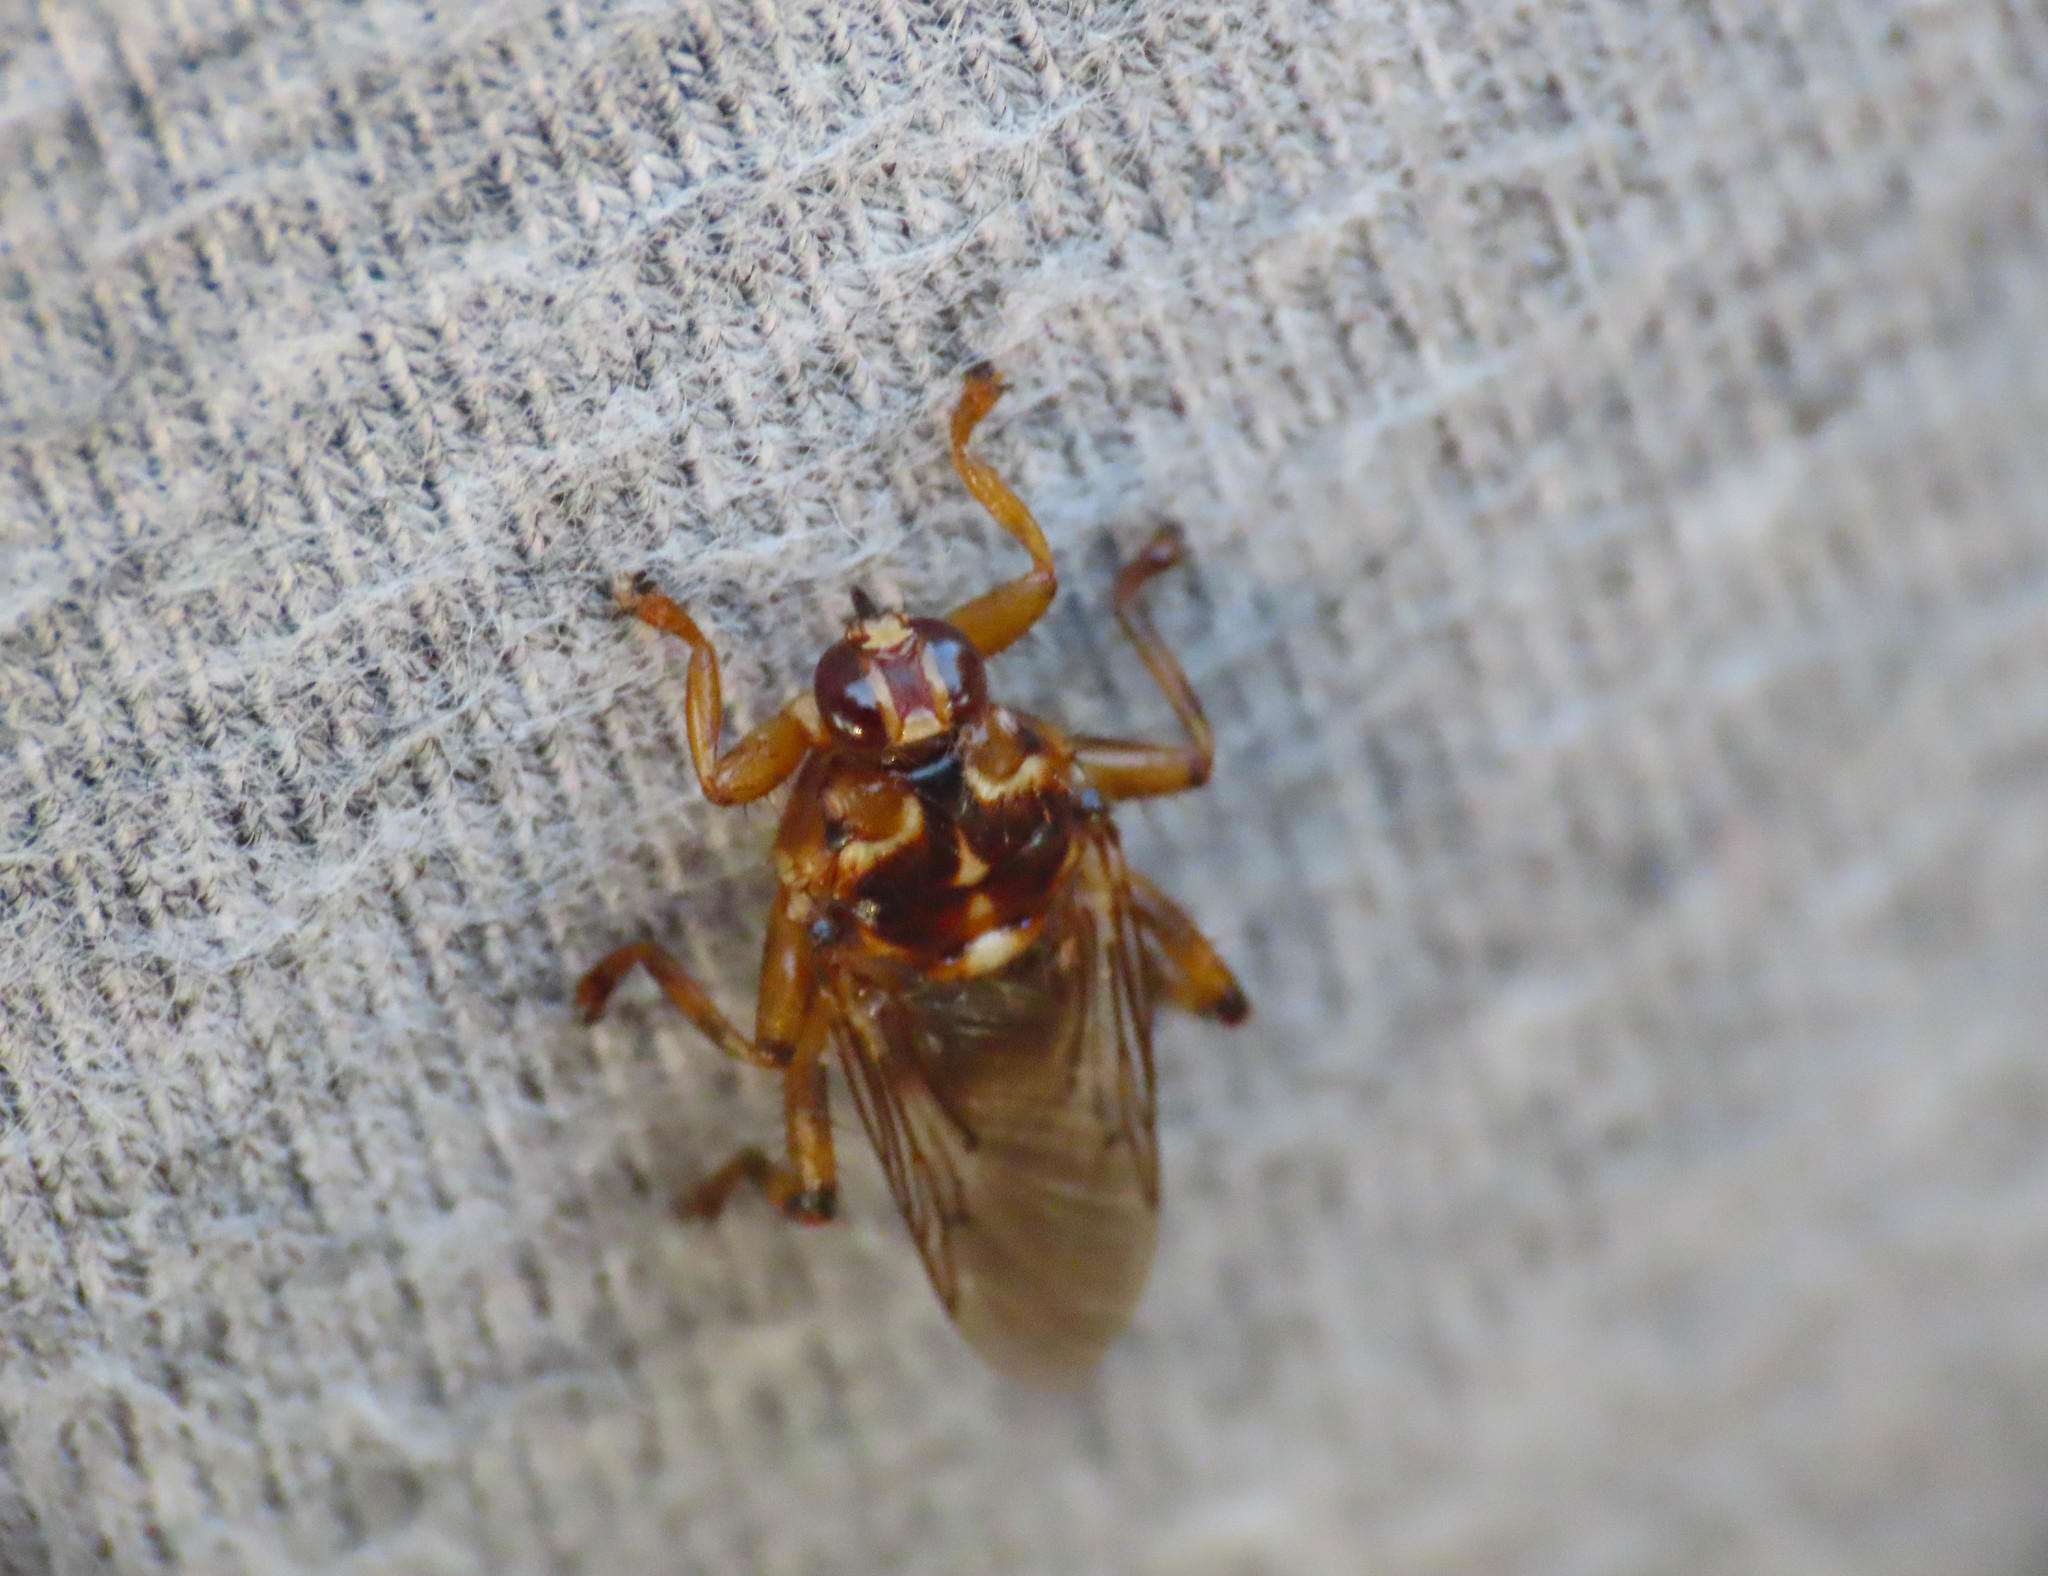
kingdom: Animalia
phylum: Arthropoda
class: Insecta
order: Diptera
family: Hippoboscidae
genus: Hippobosca
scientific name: Hippobosca equina
